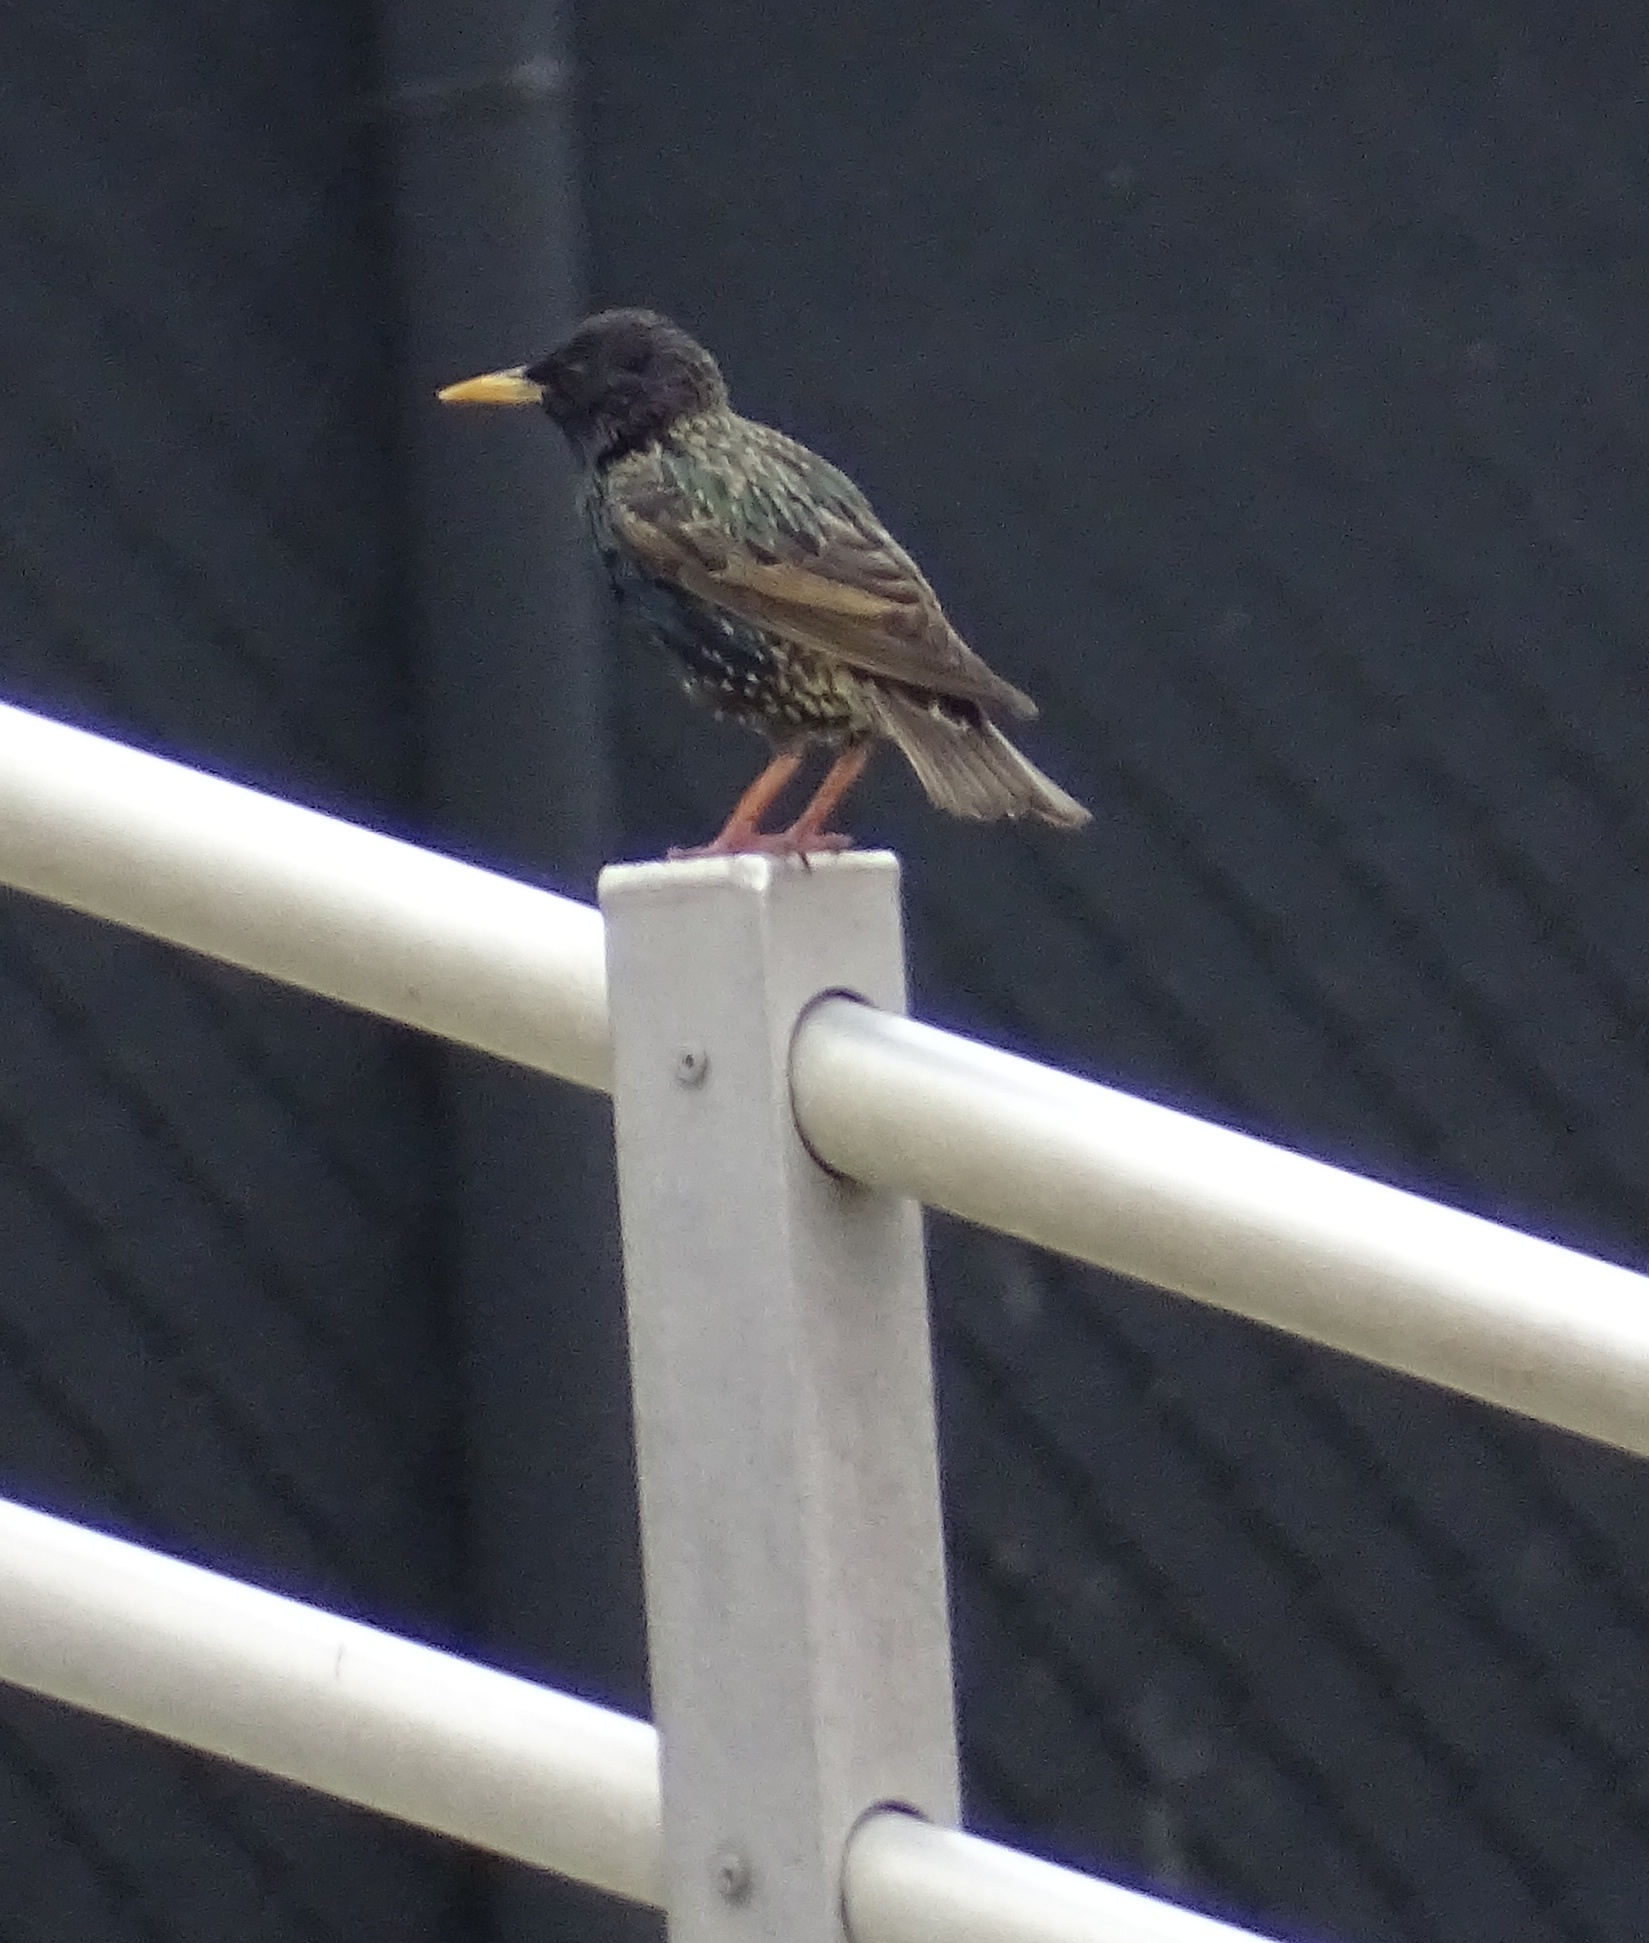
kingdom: Animalia
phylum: Chordata
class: Aves
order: Passeriformes
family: Sturnidae
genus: Sturnus
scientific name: Sturnus vulgaris
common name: Common starling
